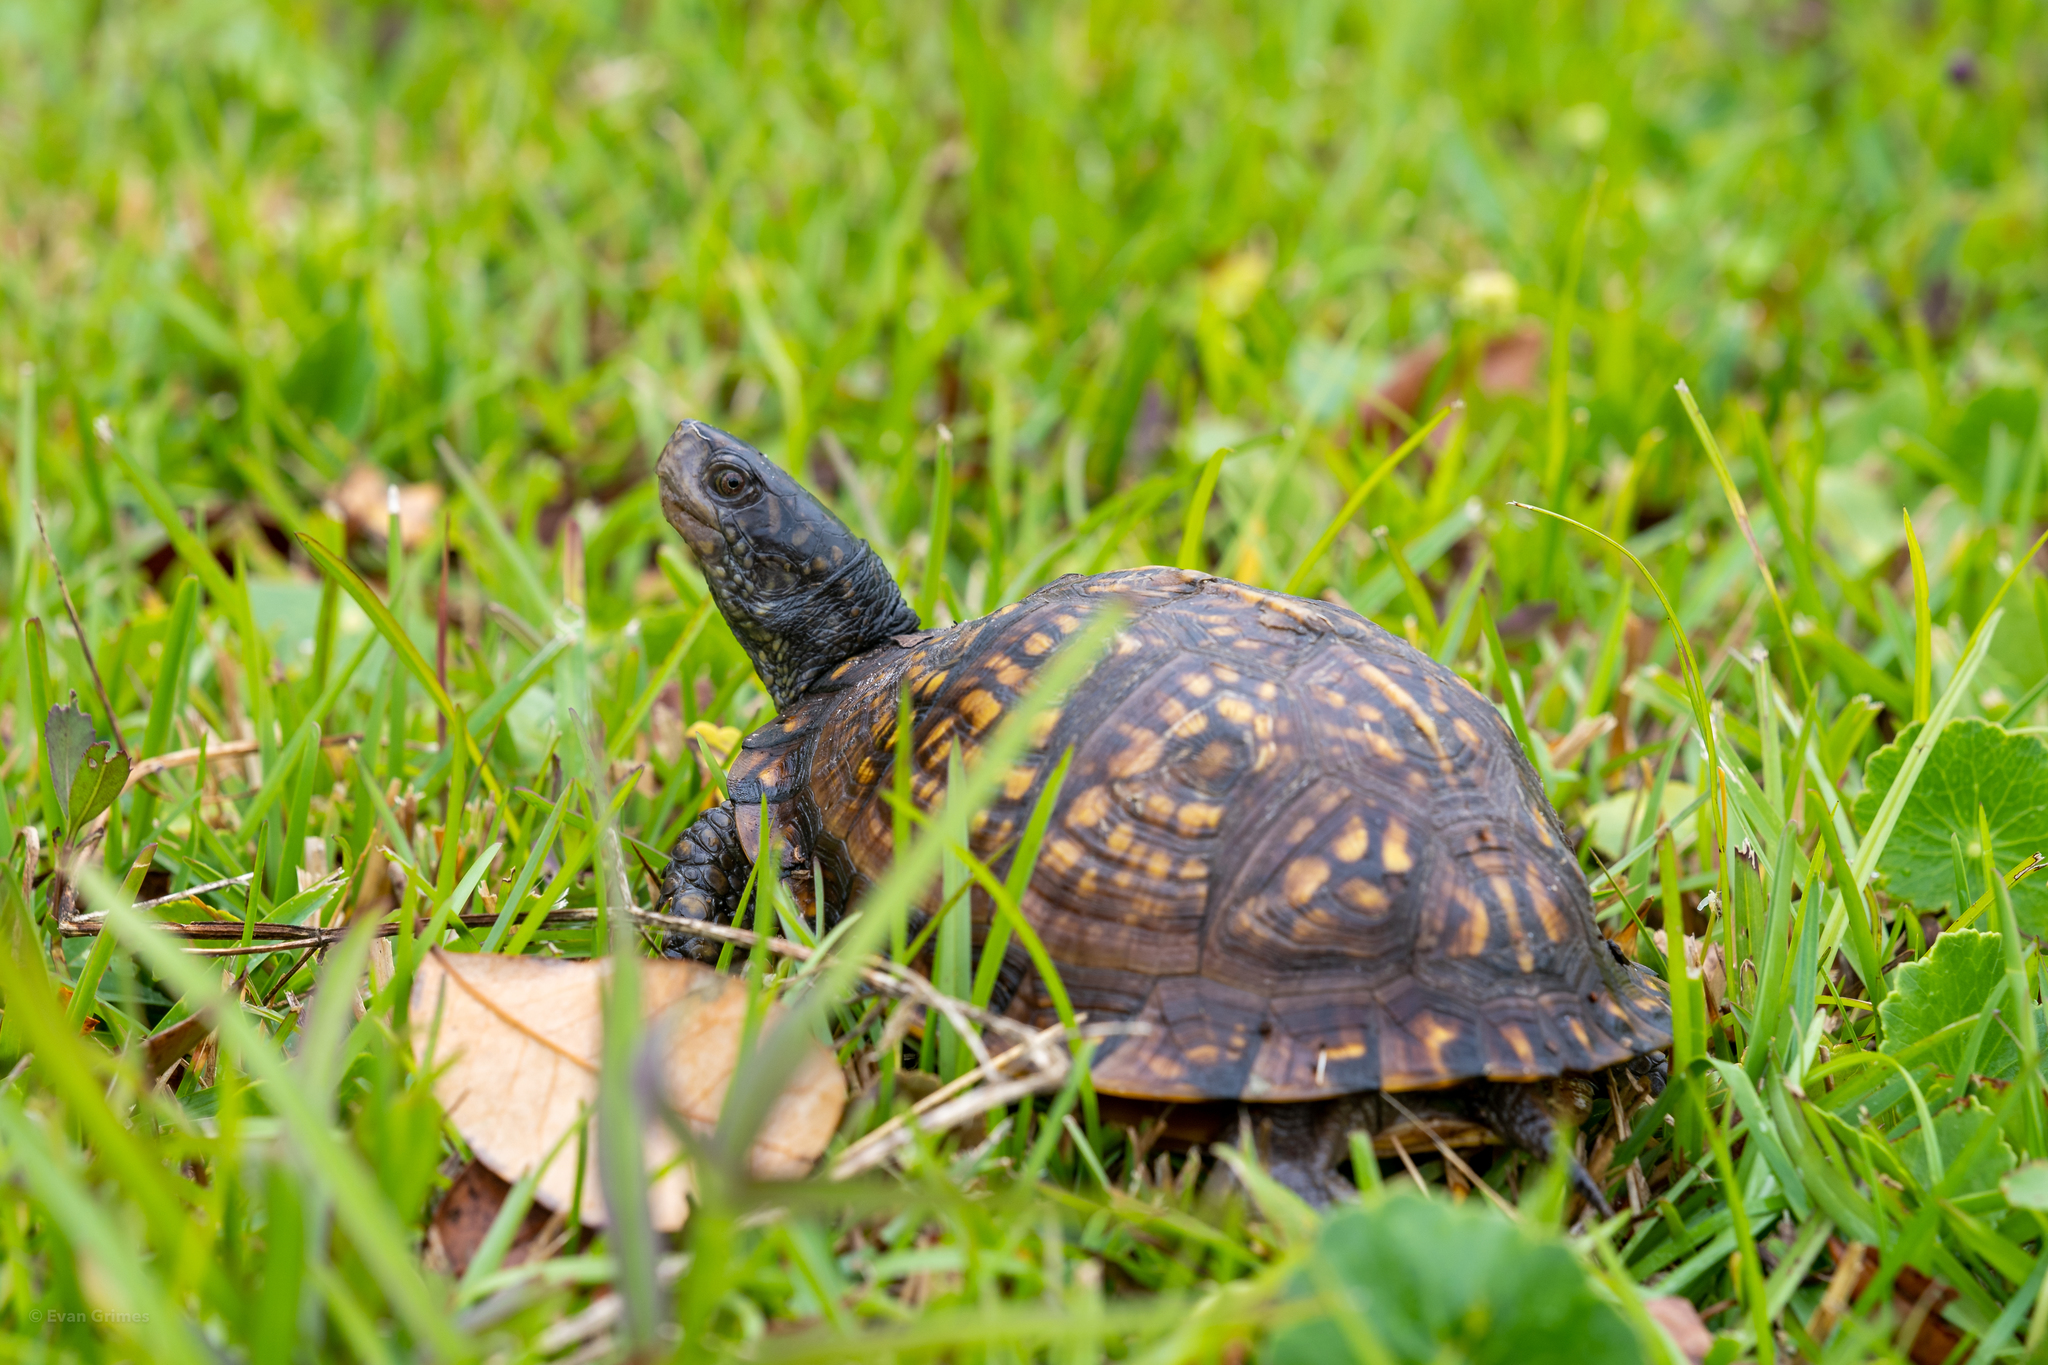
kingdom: Animalia
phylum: Chordata
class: Testudines
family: Emydidae
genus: Terrapene
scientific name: Terrapene carolina
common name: Common box turtle
